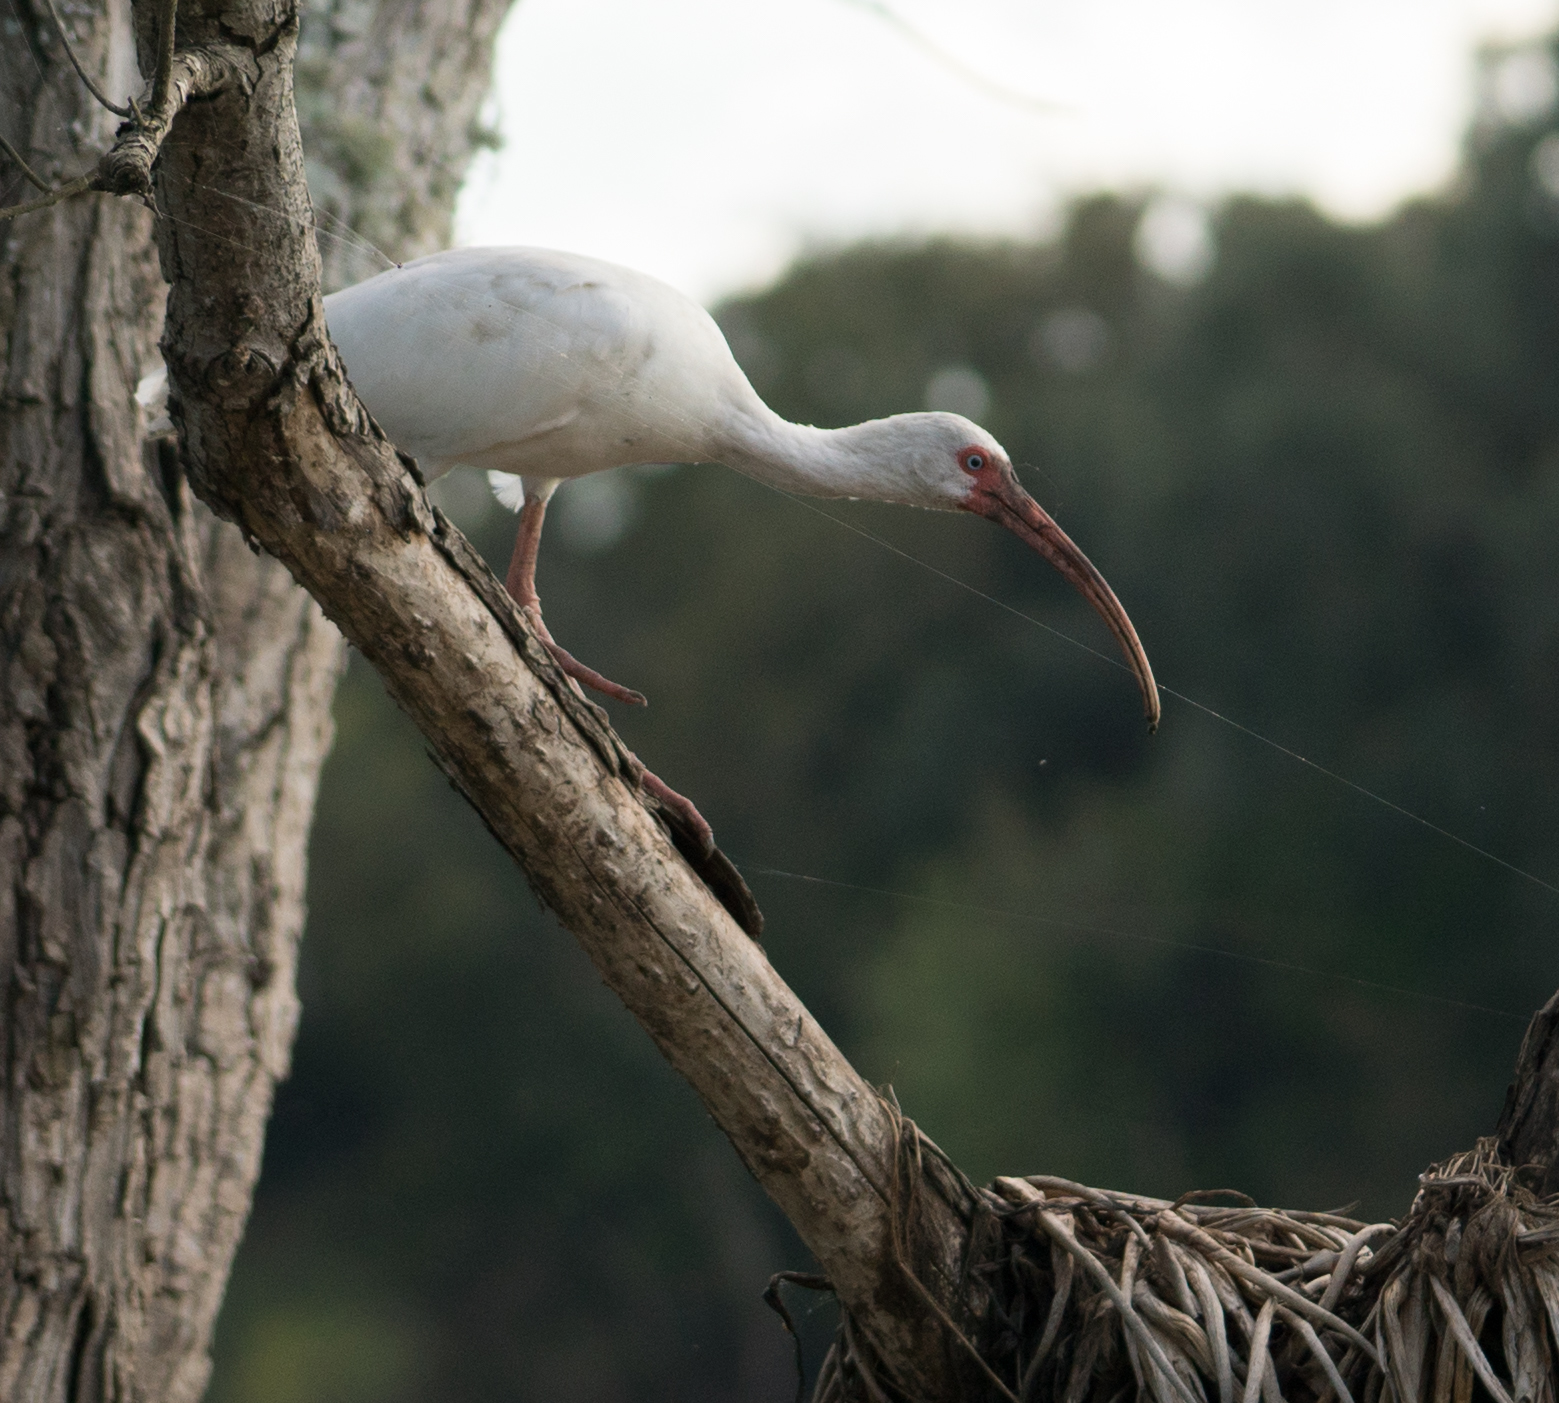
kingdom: Animalia
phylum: Chordata
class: Aves
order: Pelecaniformes
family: Threskiornithidae
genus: Eudocimus
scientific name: Eudocimus albus
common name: White ibis
